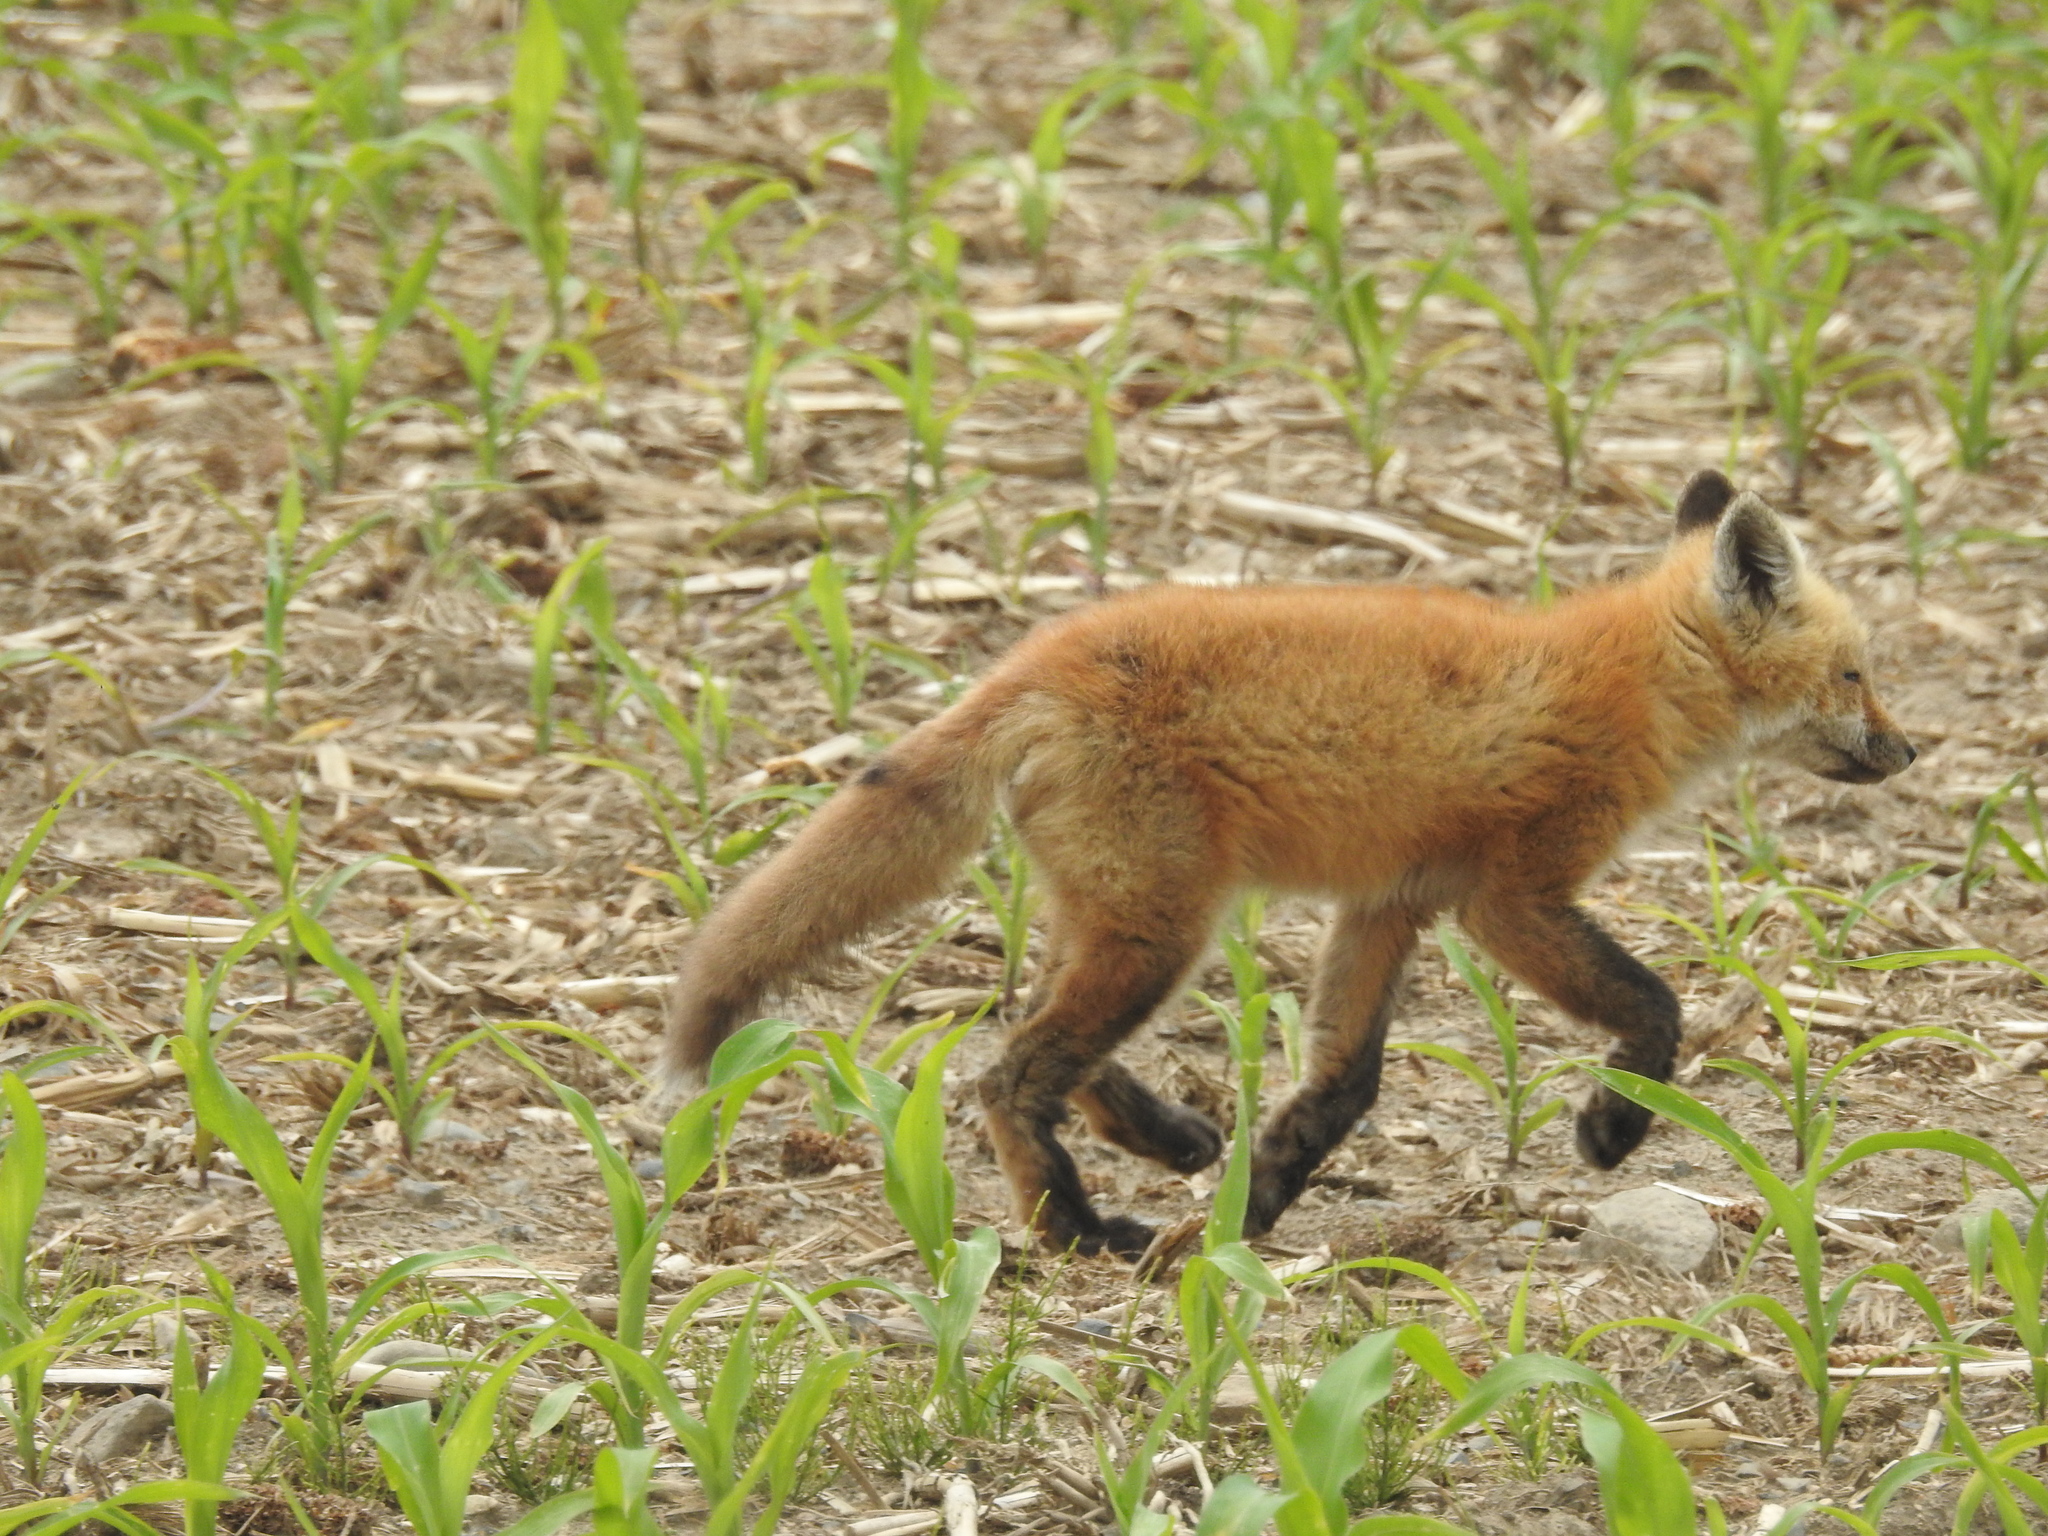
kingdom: Animalia
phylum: Chordata
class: Mammalia
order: Carnivora
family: Canidae
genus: Vulpes
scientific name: Vulpes vulpes
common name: Red fox
